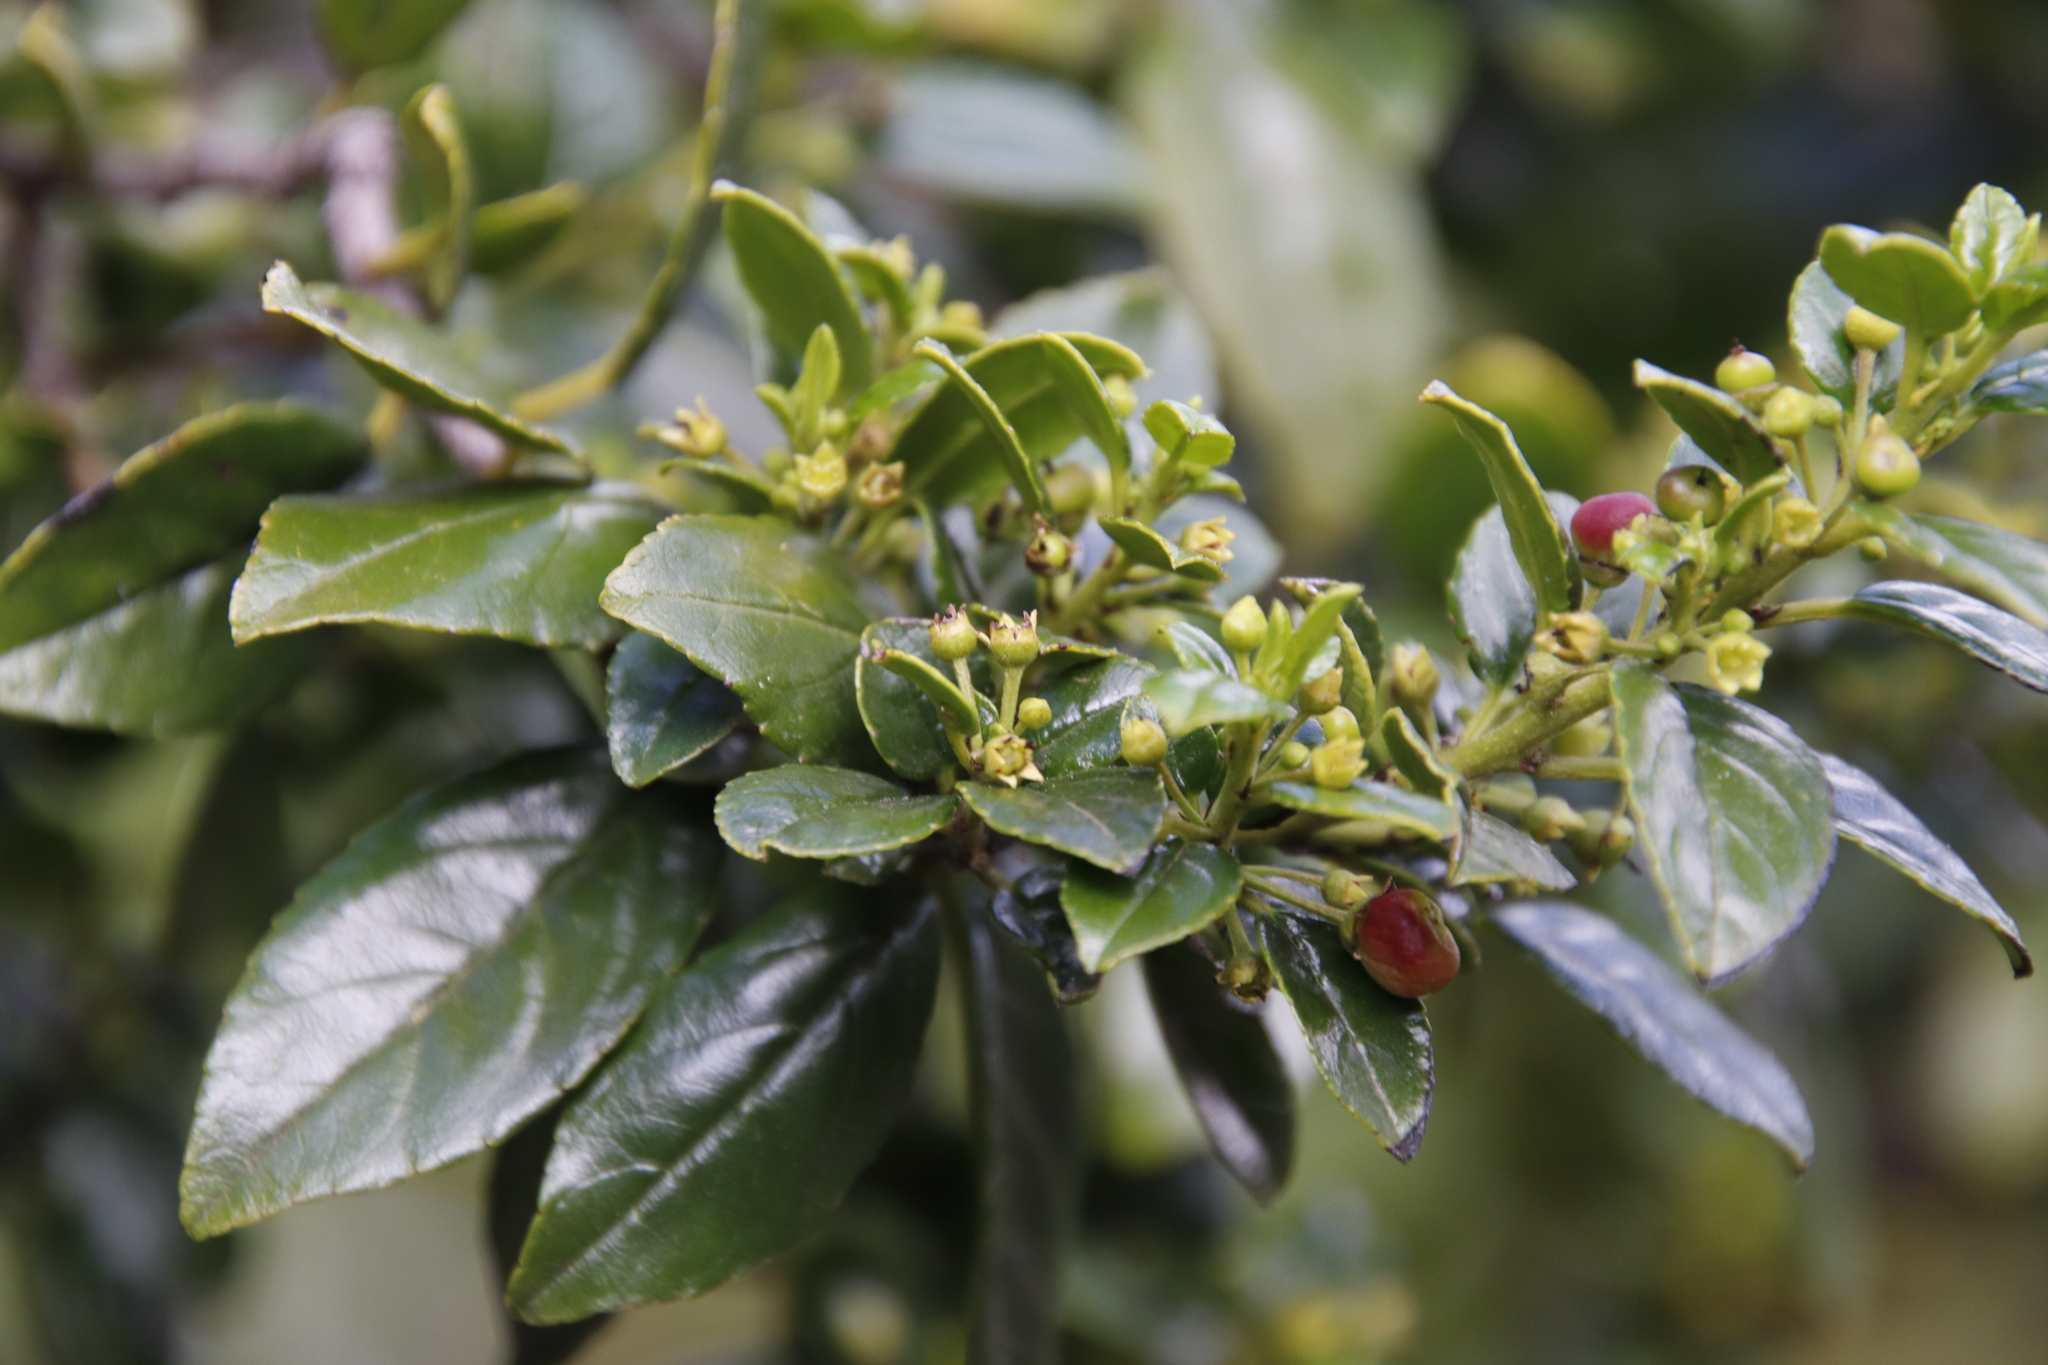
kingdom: Plantae
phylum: Tracheophyta
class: Magnoliopsida
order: Rosales
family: Rhamnaceae
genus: Rhamnus
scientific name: Rhamnus prinoides
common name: Dogwood
